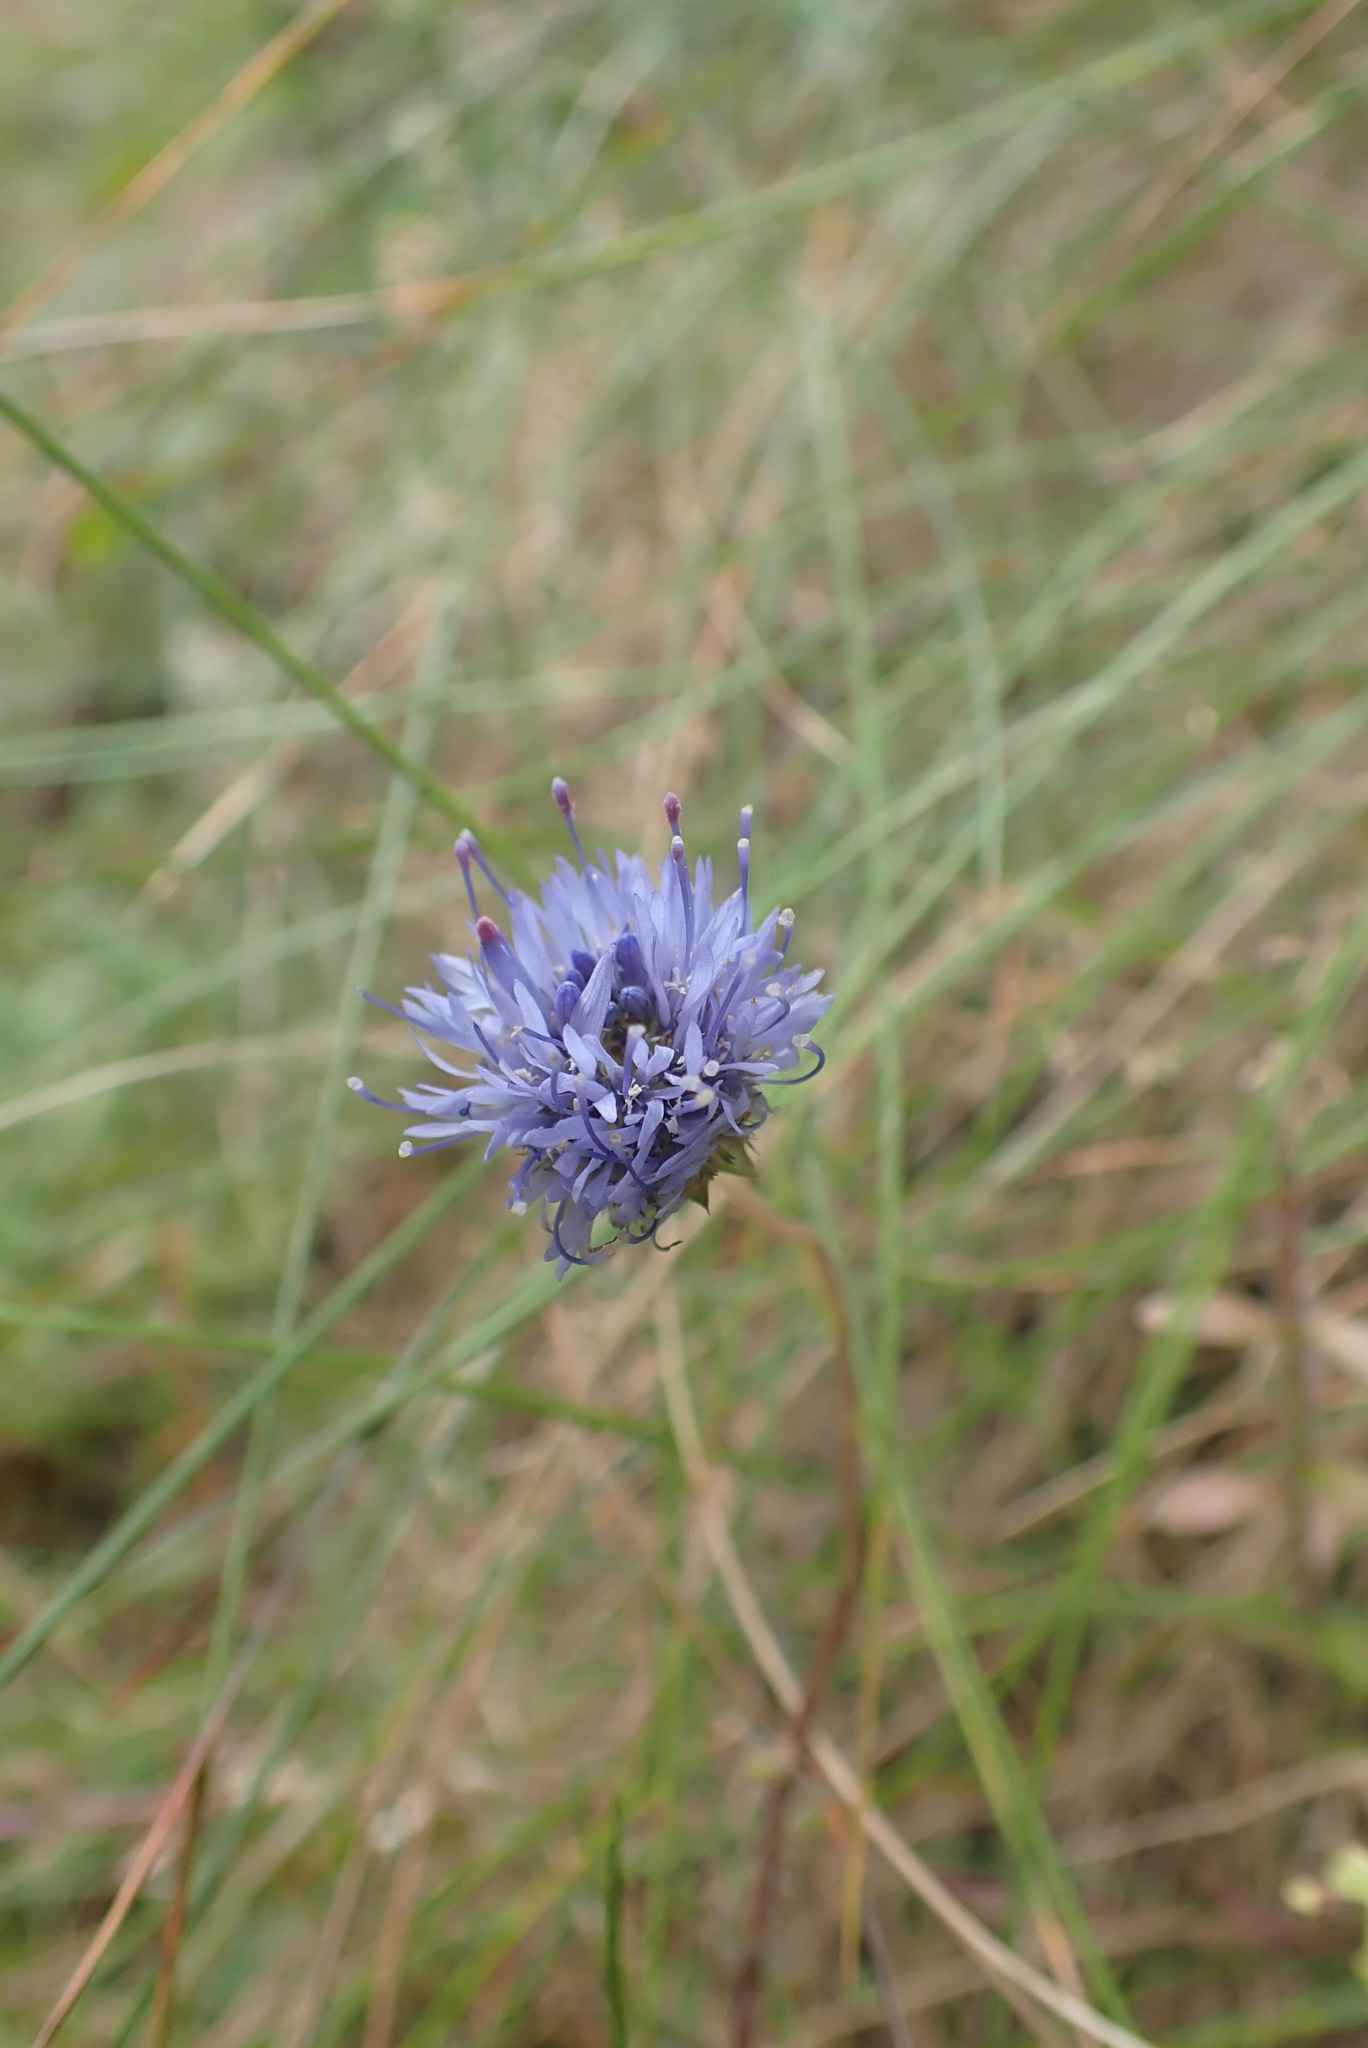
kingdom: Plantae
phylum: Tracheophyta
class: Magnoliopsida
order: Asterales
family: Campanulaceae
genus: Jasione
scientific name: Jasione montana
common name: Sheep's-bit
